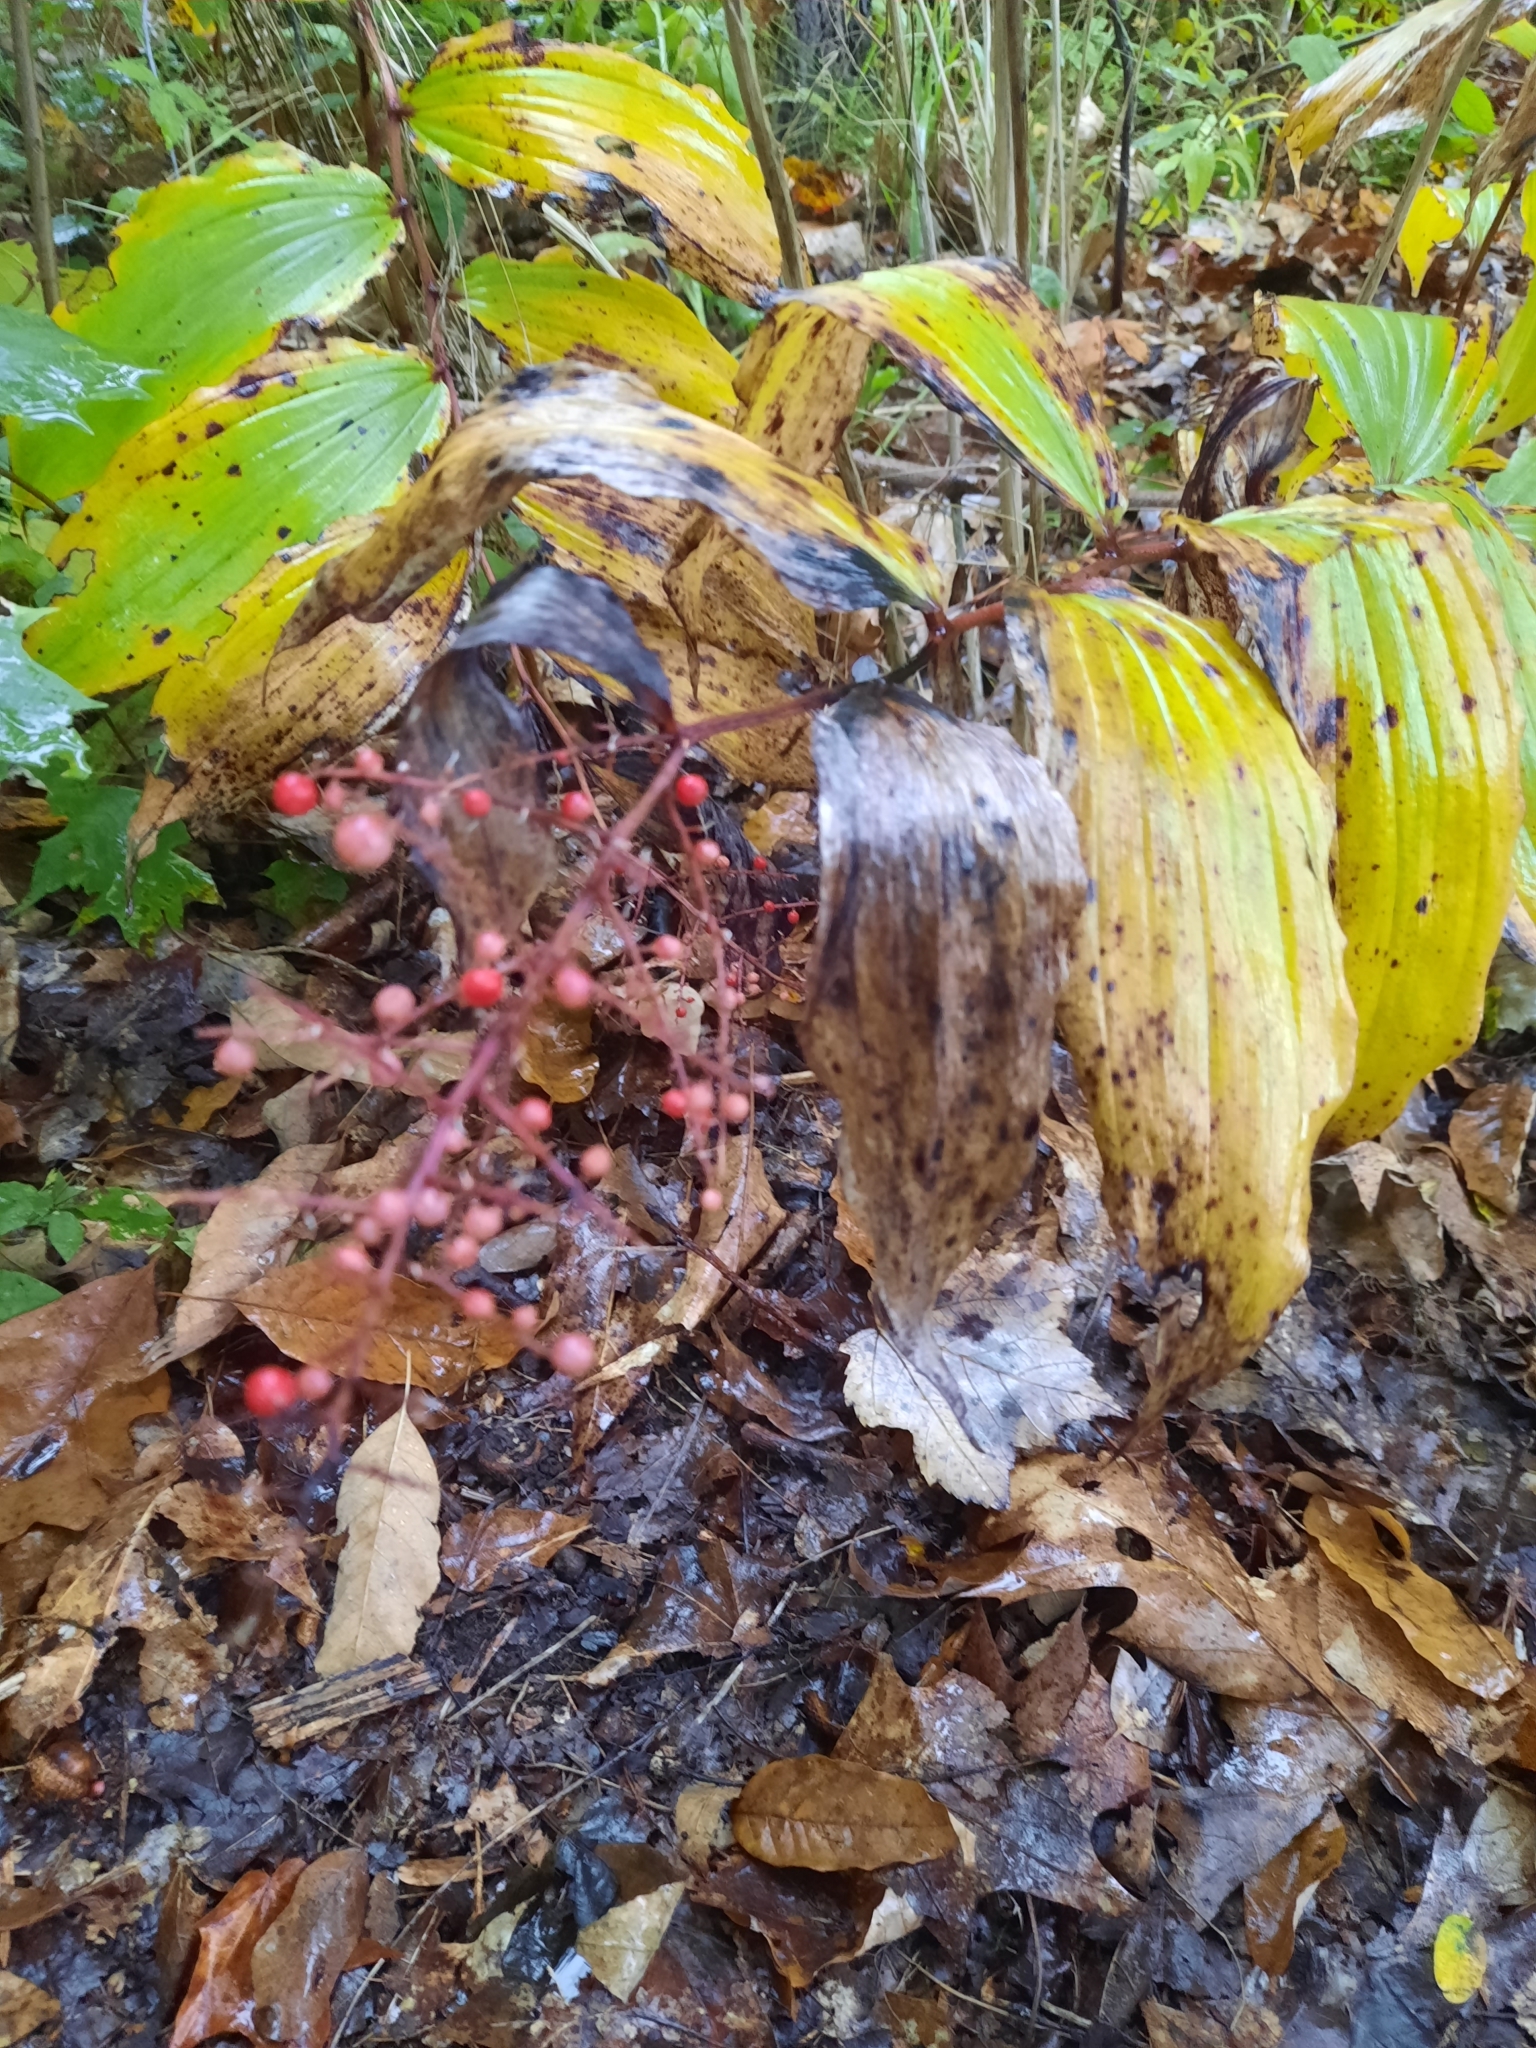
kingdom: Plantae
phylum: Tracheophyta
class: Liliopsida
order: Asparagales
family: Asparagaceae
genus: Maianthemum
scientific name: Maianthemum racemosum
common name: False spikenard
